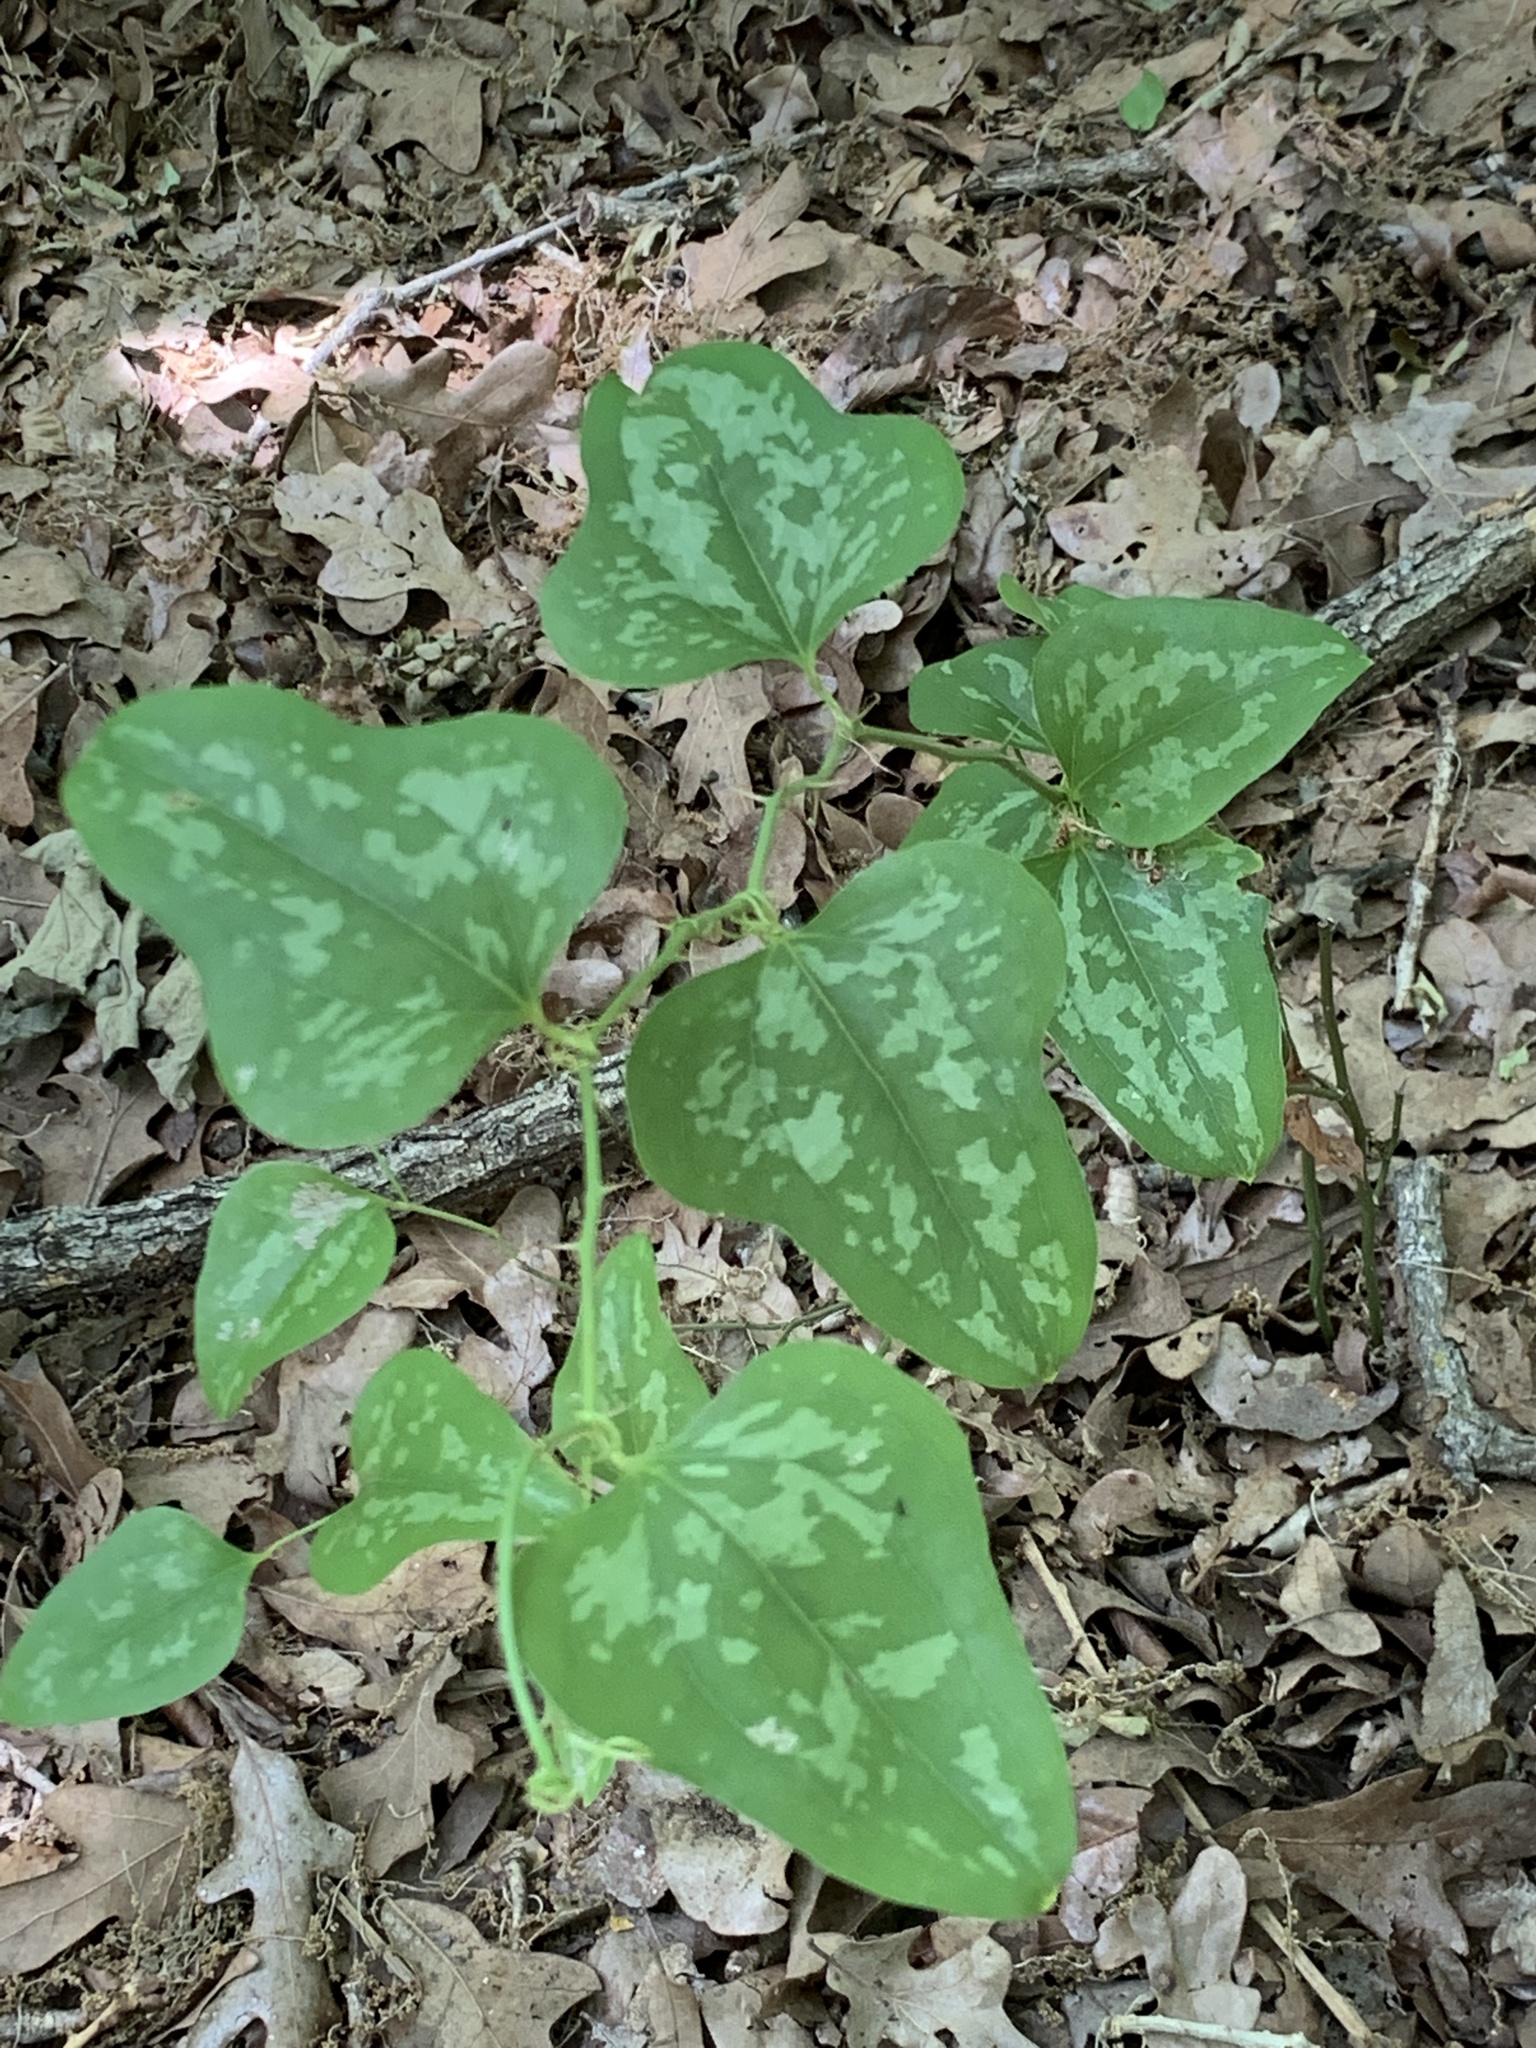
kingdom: Plantae
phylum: Tracheophyta
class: Liliopsida
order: Liliales
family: Smilacaceae
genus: Smilax
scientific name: Smilax bona-nox
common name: Catbrier
